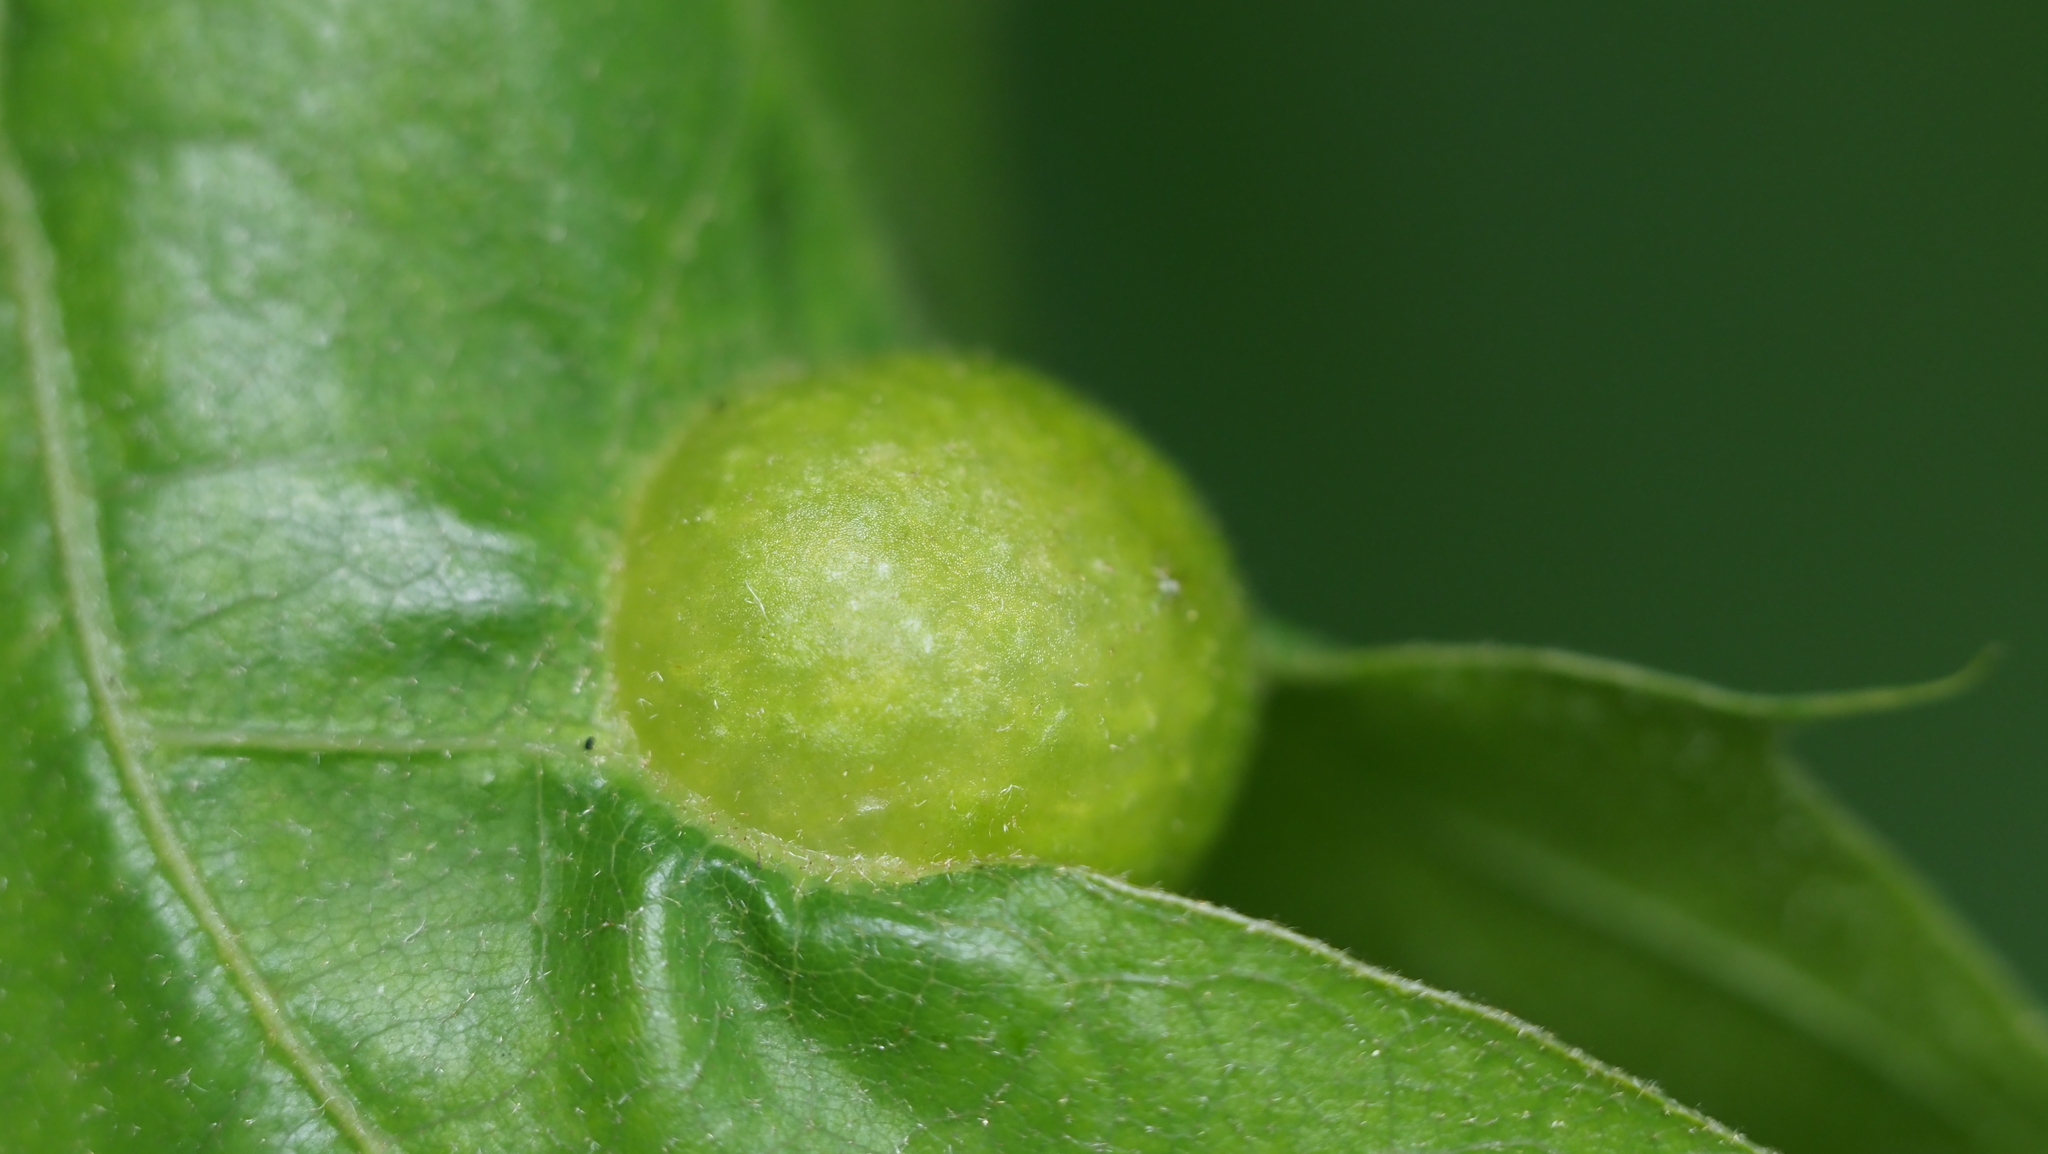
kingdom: Animalia
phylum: Arthropoda
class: Insecta
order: Hymenoptera
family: Cynipidae
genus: Amphibolips
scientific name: Amphibolips
